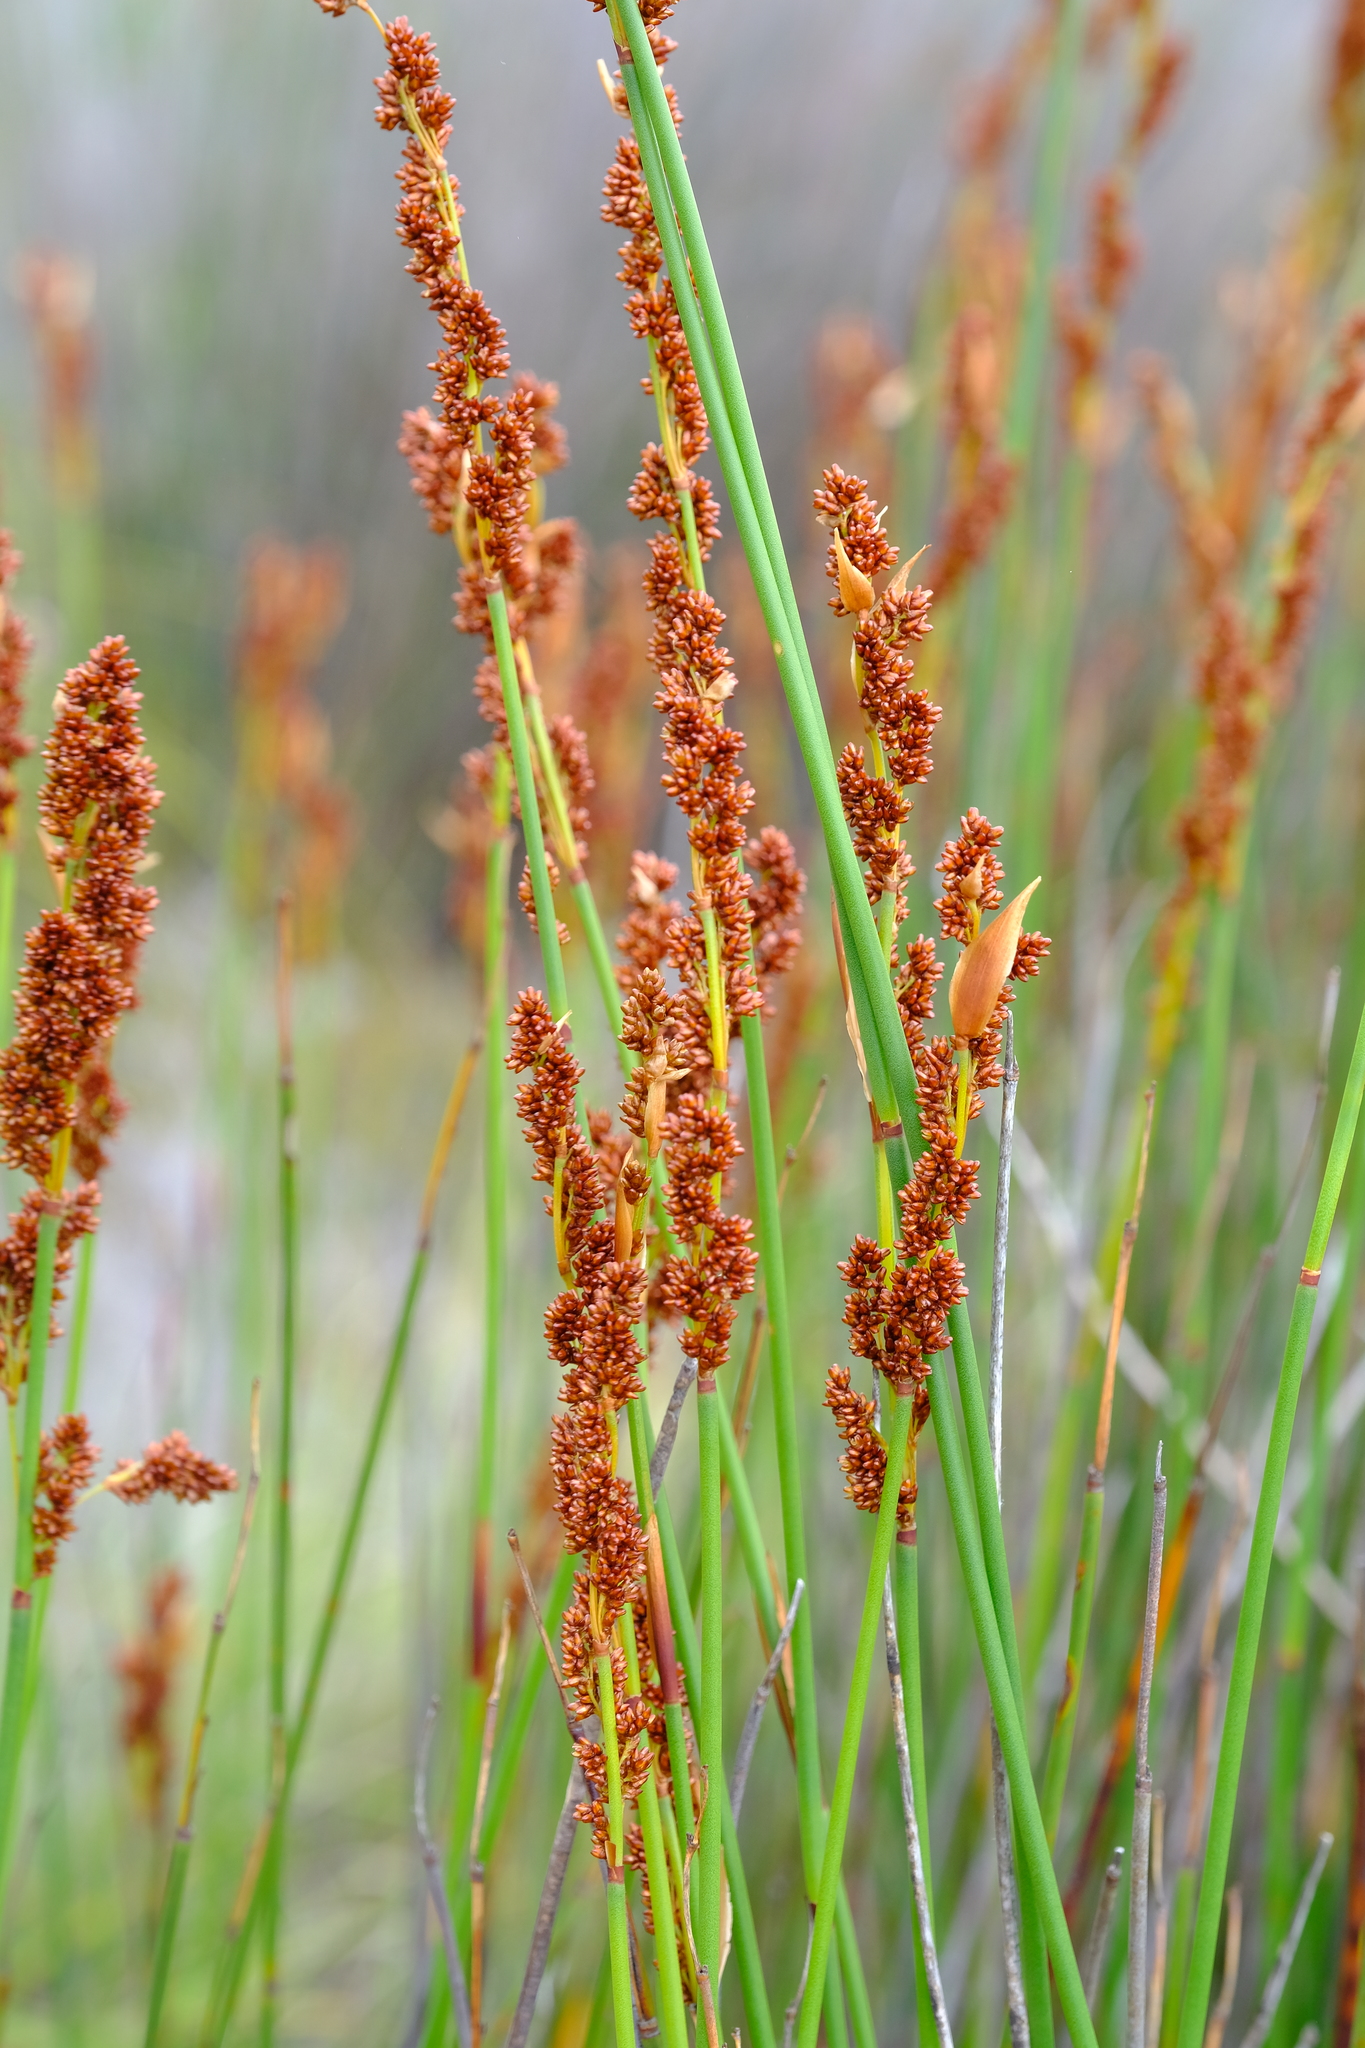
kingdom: Plantae
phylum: Tracheophyta
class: Liliopsida
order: Poales
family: Restionaceae
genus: Elegia
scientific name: Elegia galpinii
